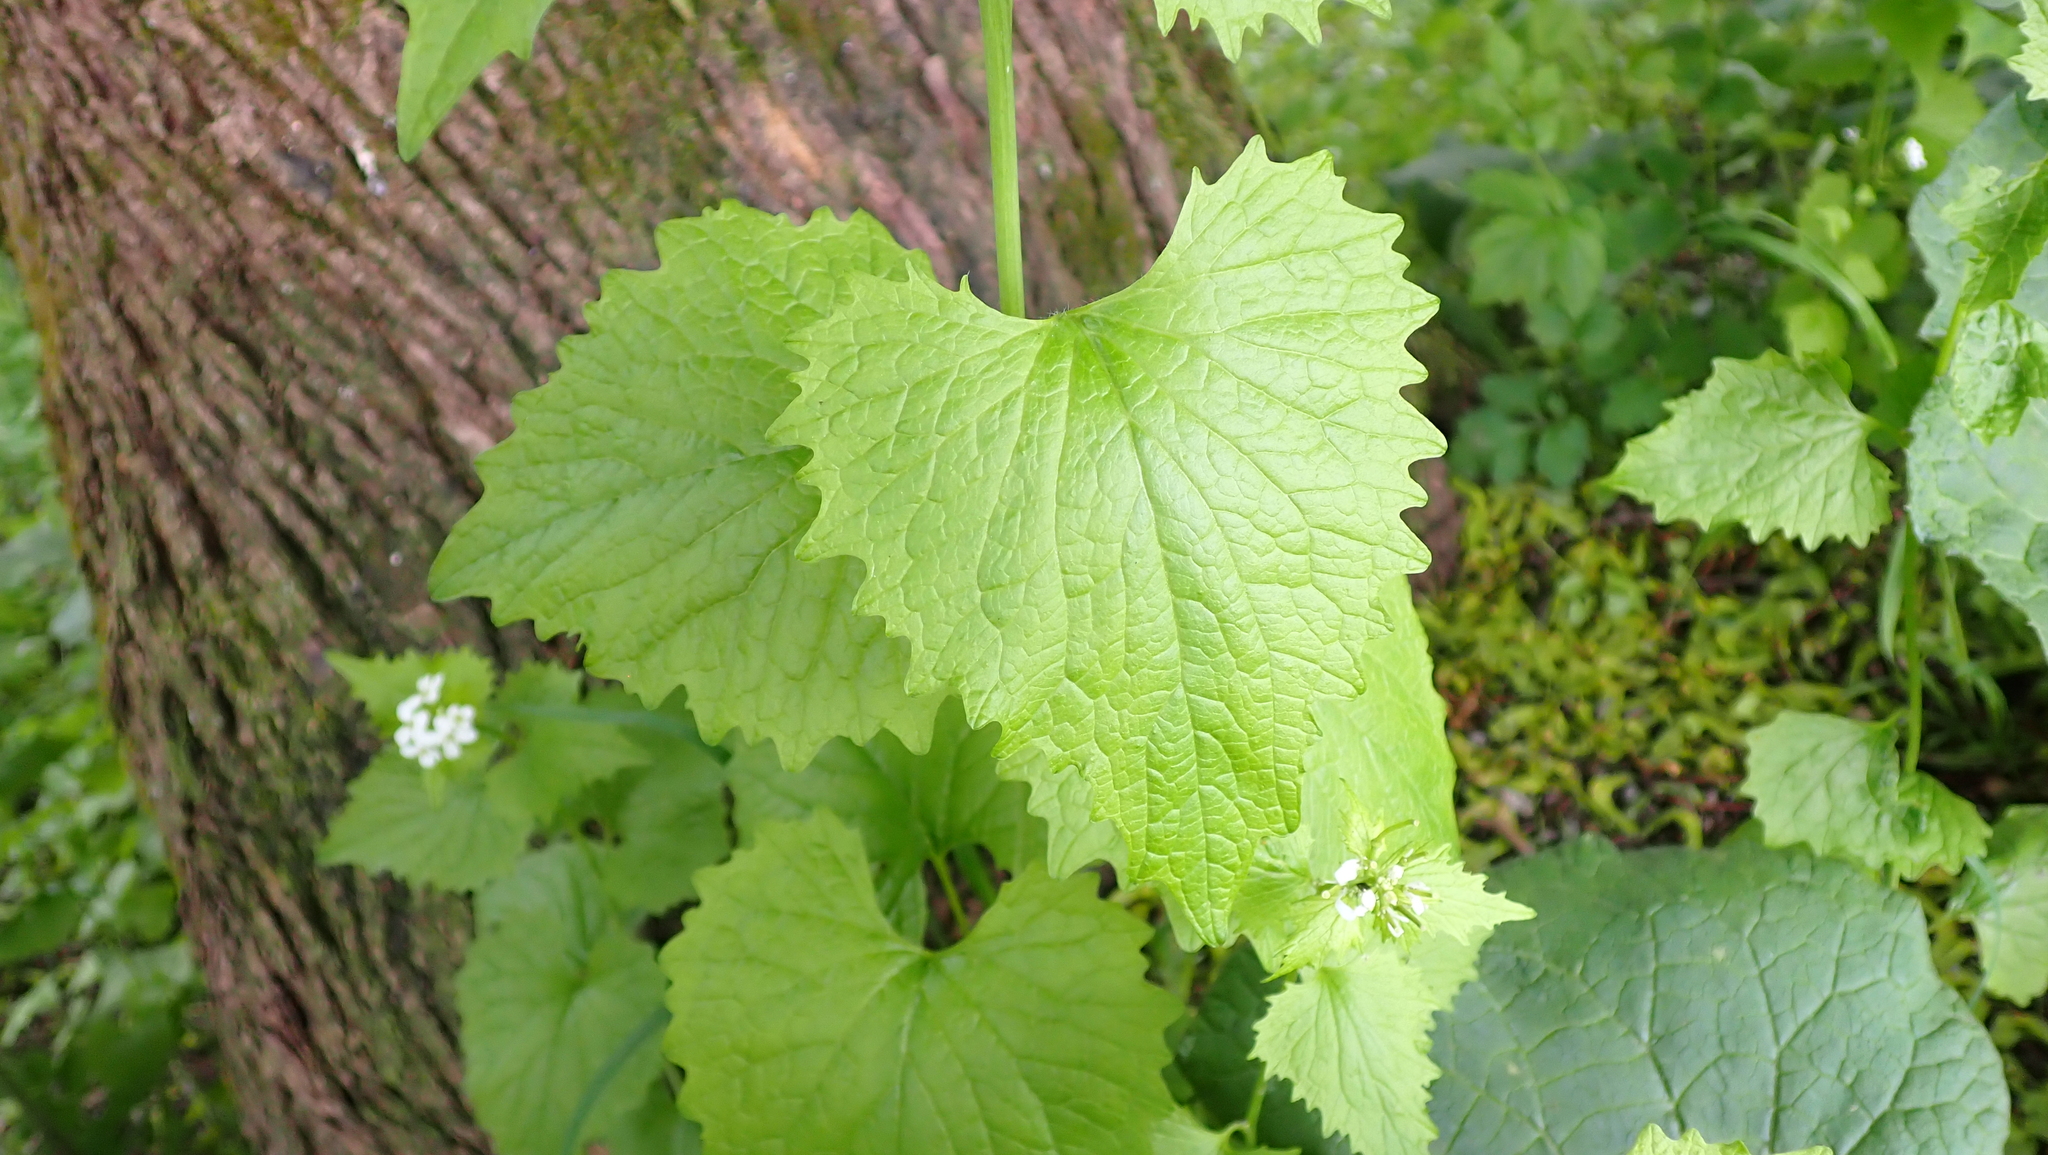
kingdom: Plantae
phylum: Tracheophyta
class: Magnoliopsida
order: Brassicales
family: Brassicaceae
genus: Alliaria
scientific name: Alliaria petiolata
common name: Garlic mustard
